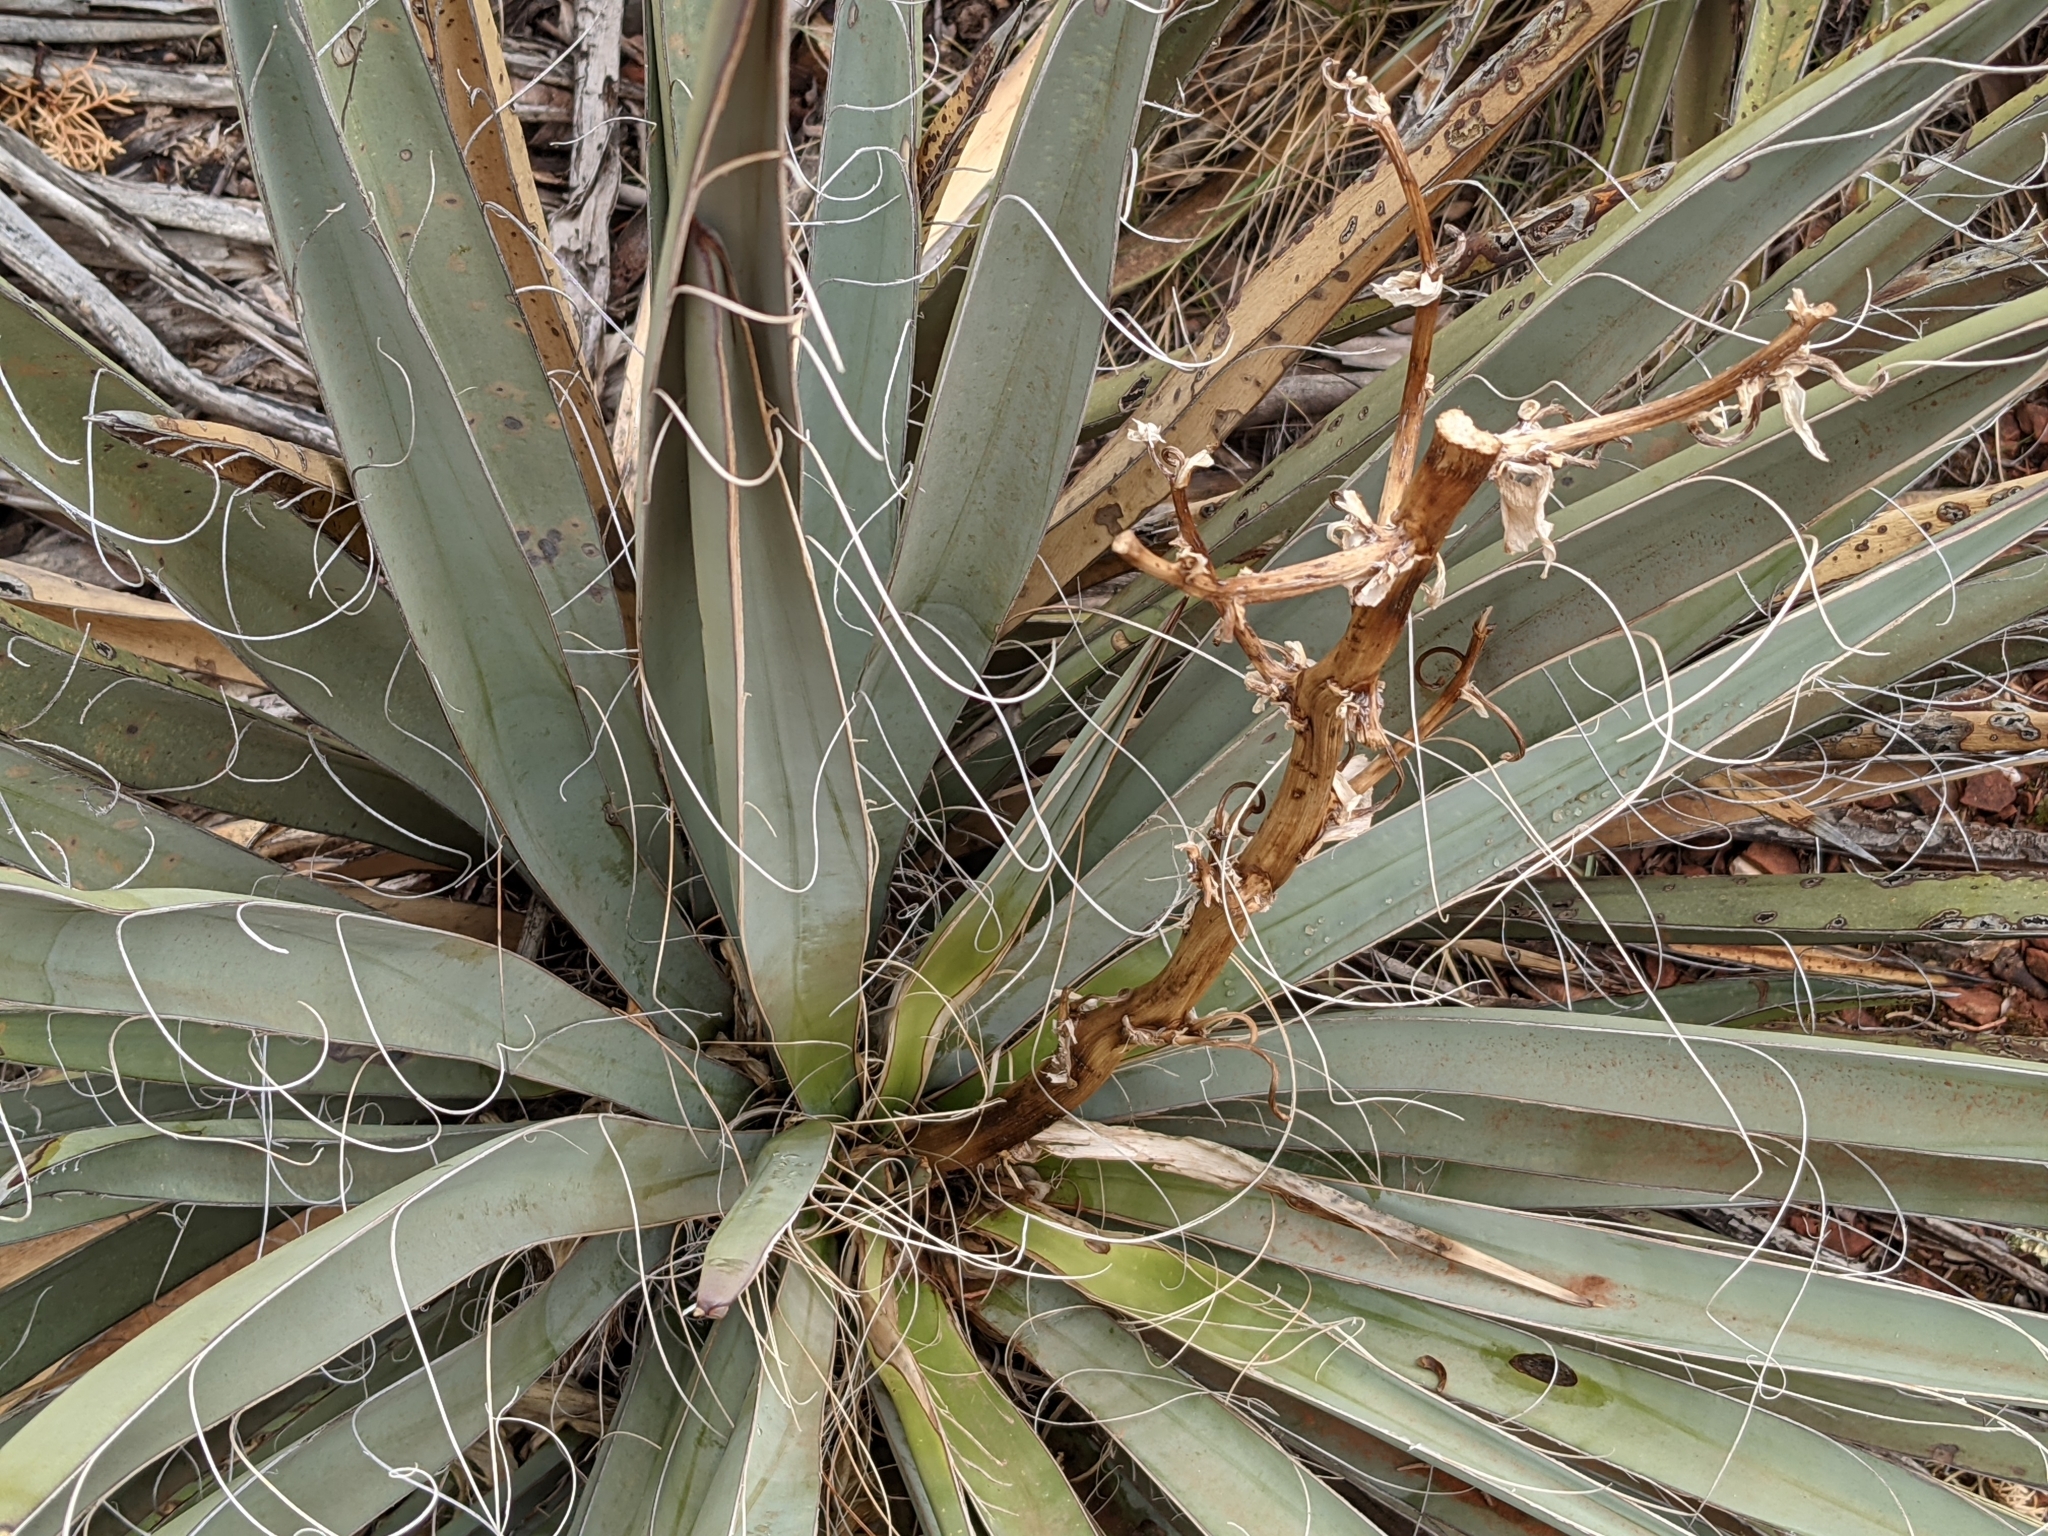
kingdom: Plantae
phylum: Tracheophyta
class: Liliopsida
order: Asparagales
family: Asparagaceae
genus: Yucca
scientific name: Yucca baccata
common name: Banana yucca
